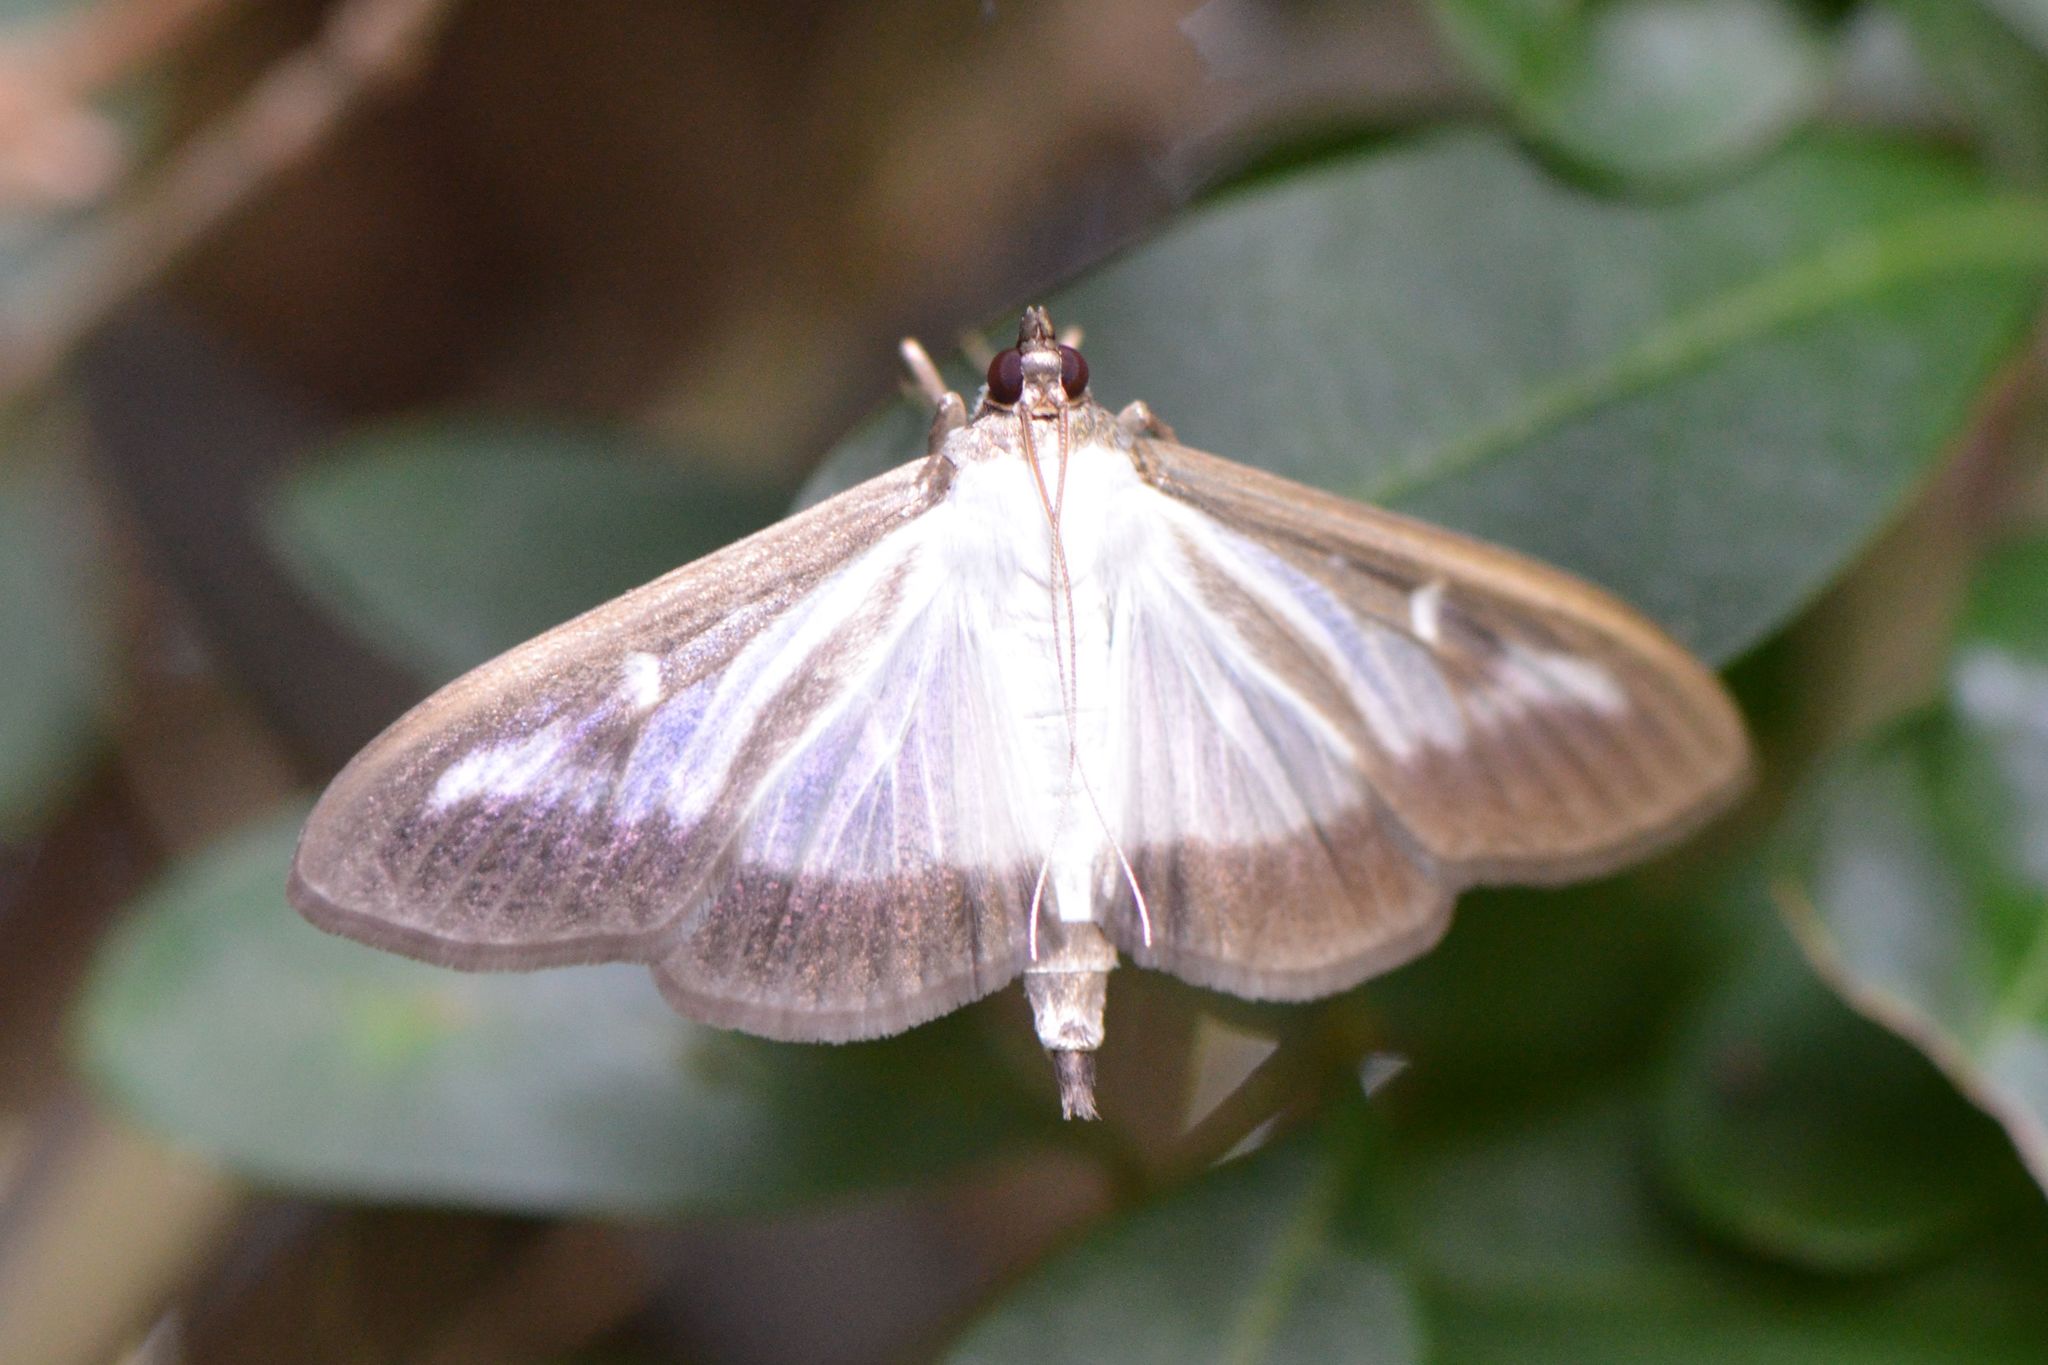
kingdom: Animalia
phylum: Arthropoda
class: Insecta
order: Lepidoptera
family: Crambidae
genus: Cydalima
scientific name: Cydalima perspectalis
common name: Box tree moth
